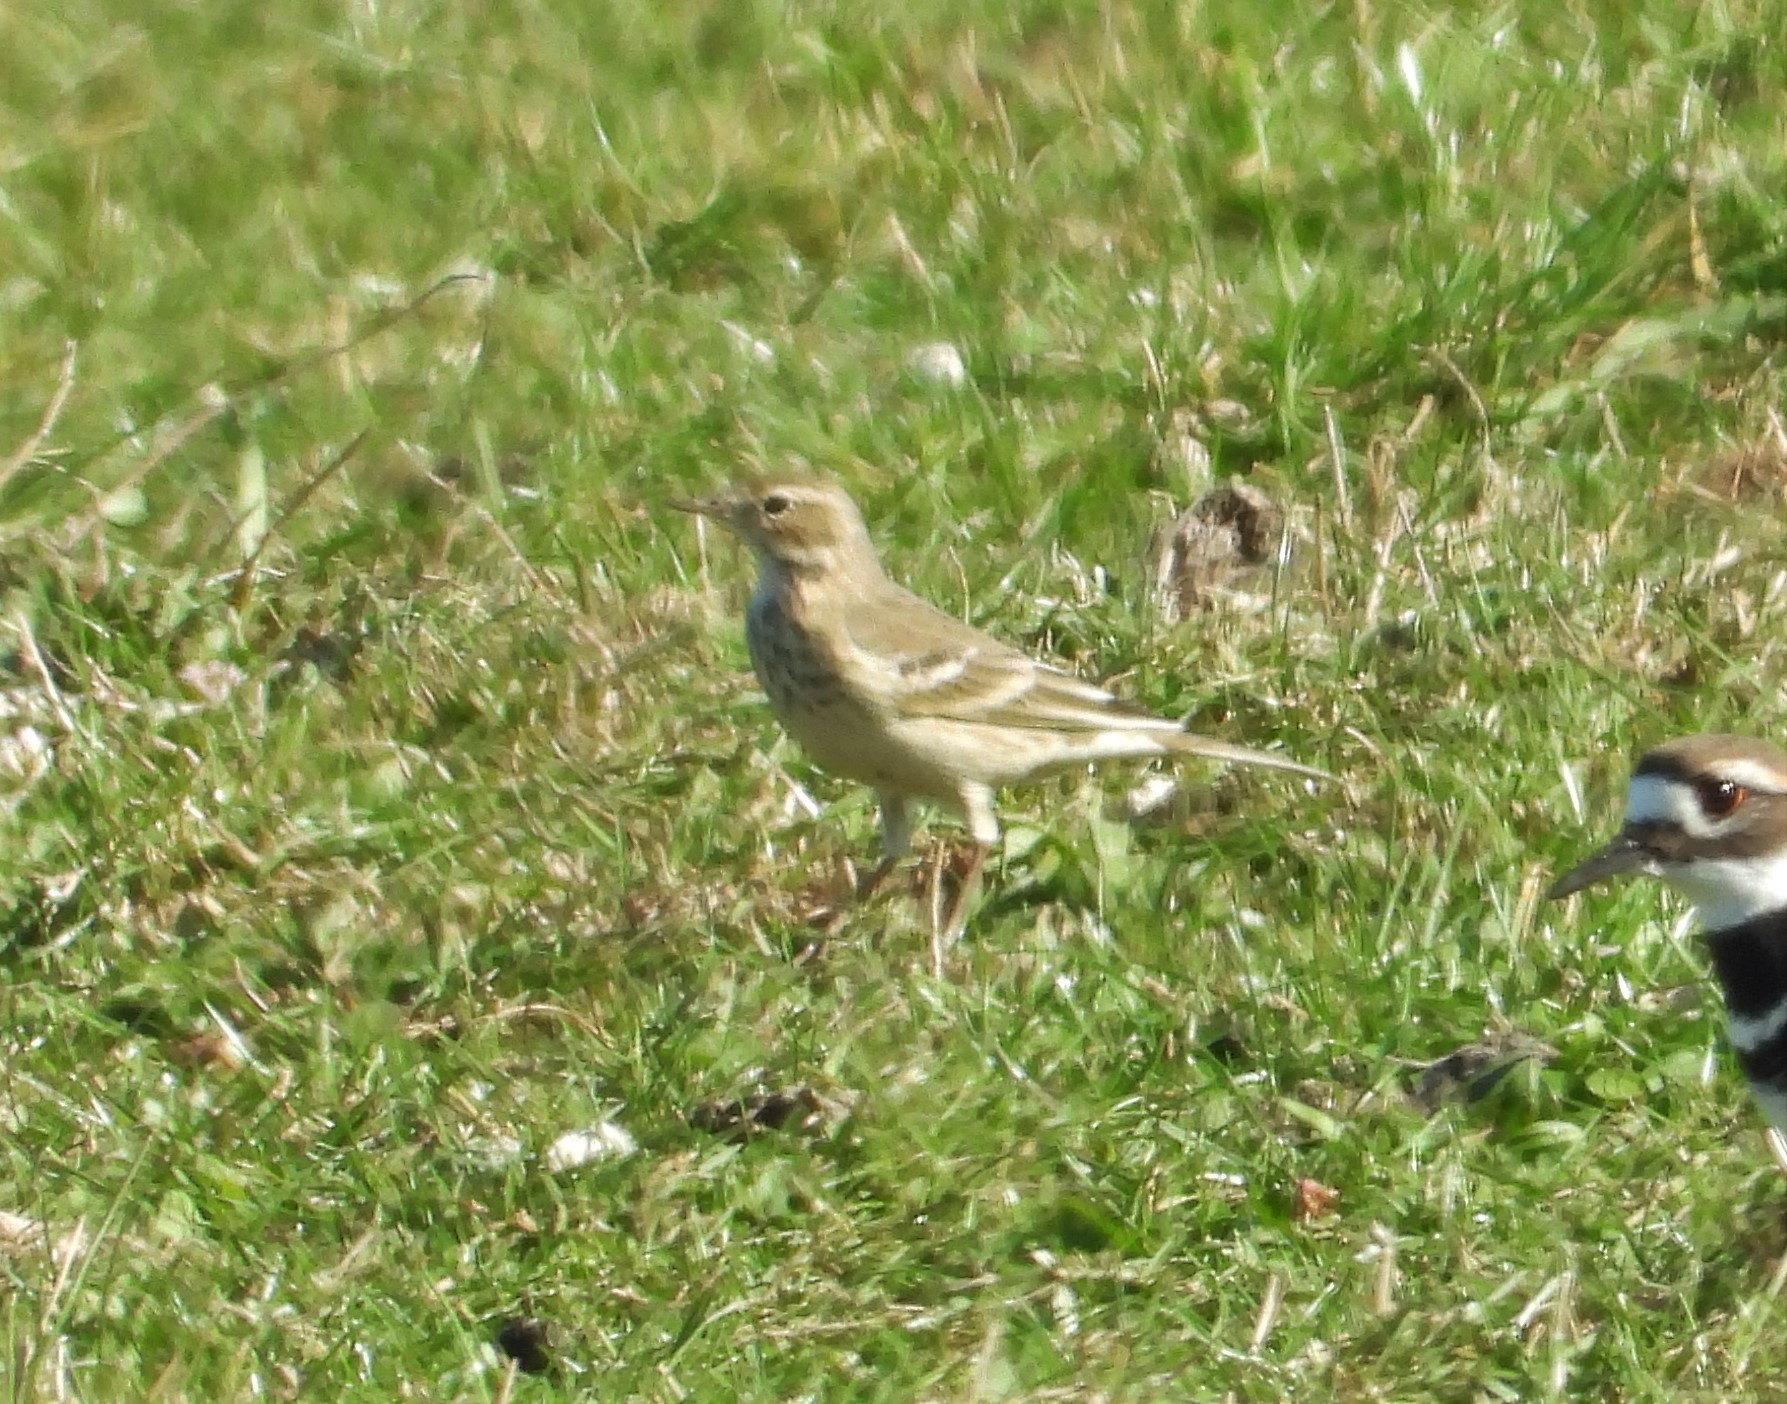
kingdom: Animalia
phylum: Chordata
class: Aves
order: Passeriformes
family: Motacillidae
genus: Anthus
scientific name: Anthus rubescens
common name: Buff-bellied pipit
